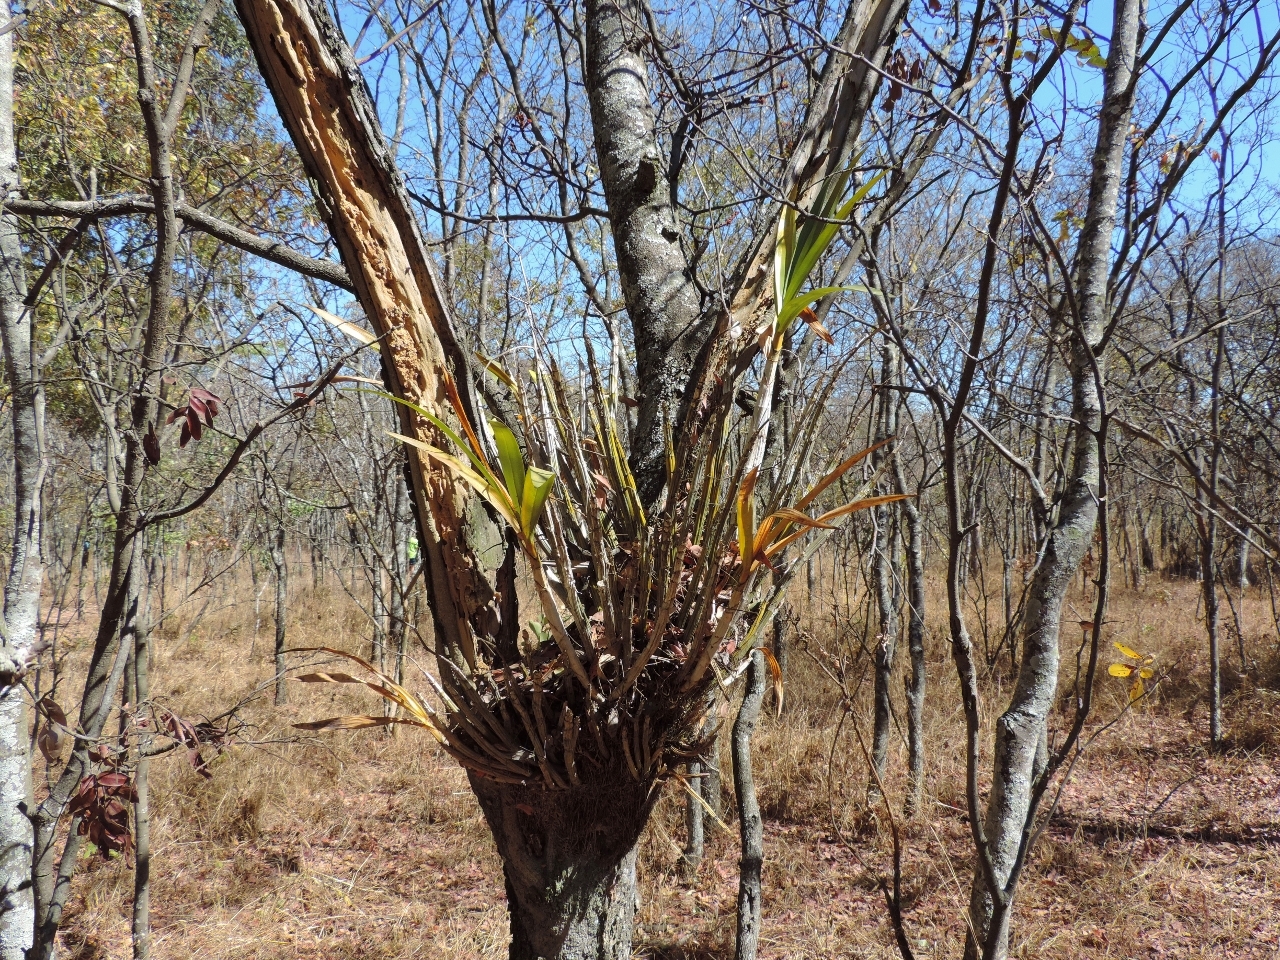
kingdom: Plantae
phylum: Tracheophyta
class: Liliopsida
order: Asparagales
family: Orchidaceae
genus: Ansellia
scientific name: Ansellia africana
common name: African ansellia
